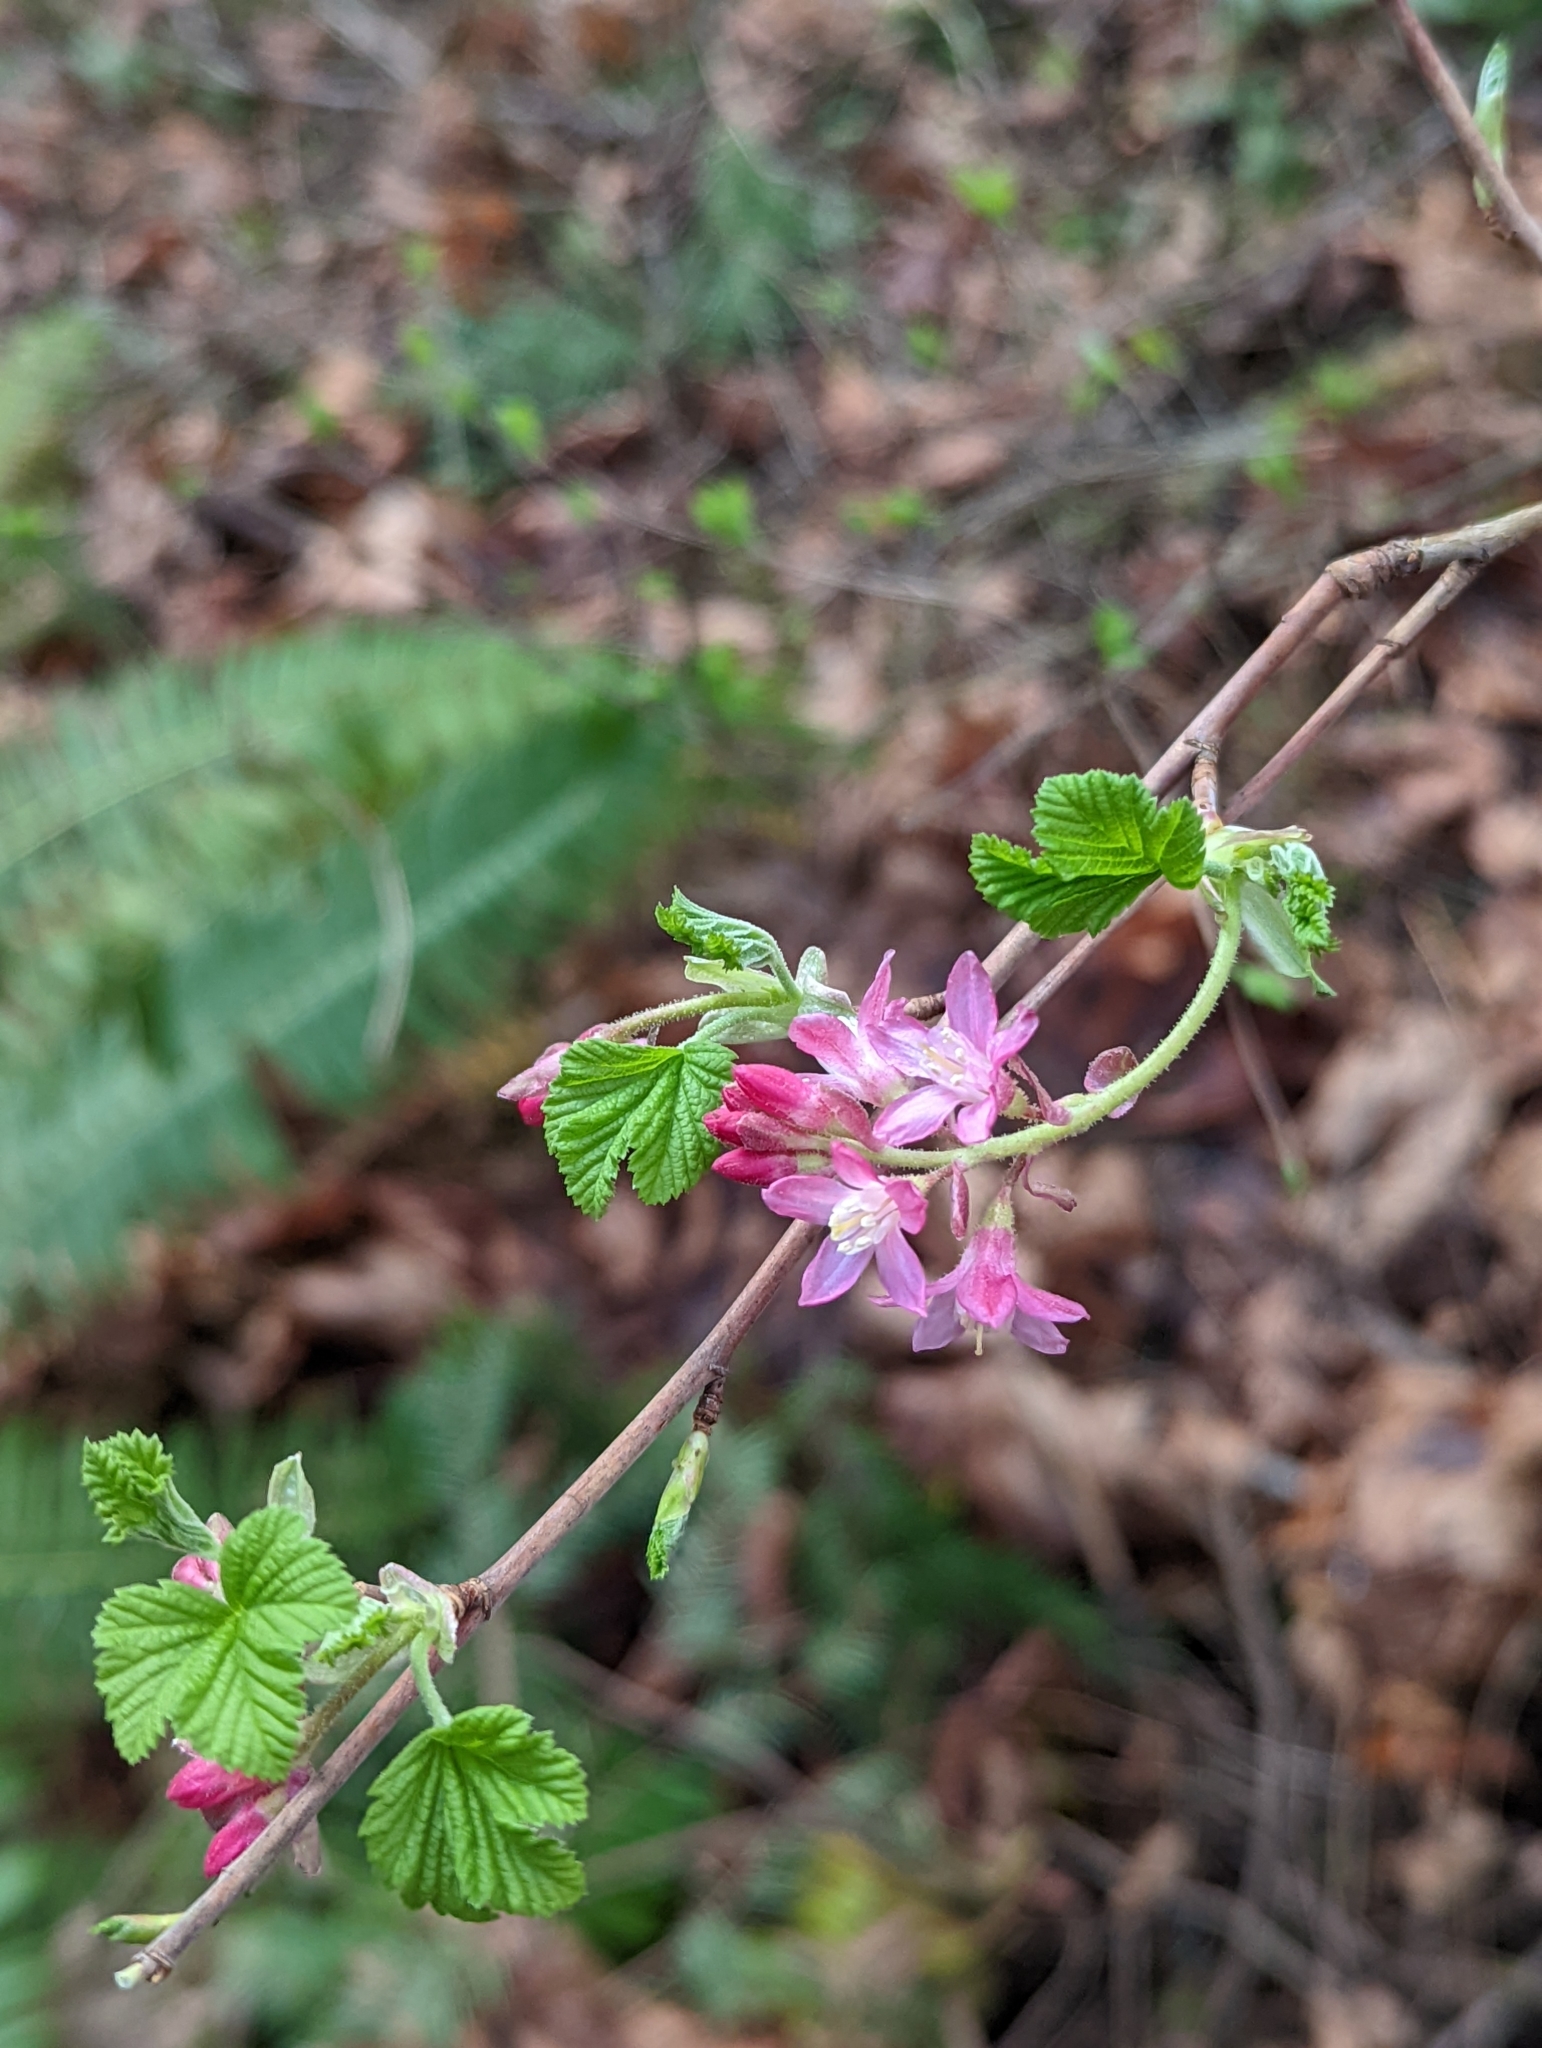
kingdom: Plantae
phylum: Tracheophyta
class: Magnoliopsida
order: Saxifragales
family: Grossulariaceae
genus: Ribes
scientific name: Ribes sanguineum
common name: Flowering currant
